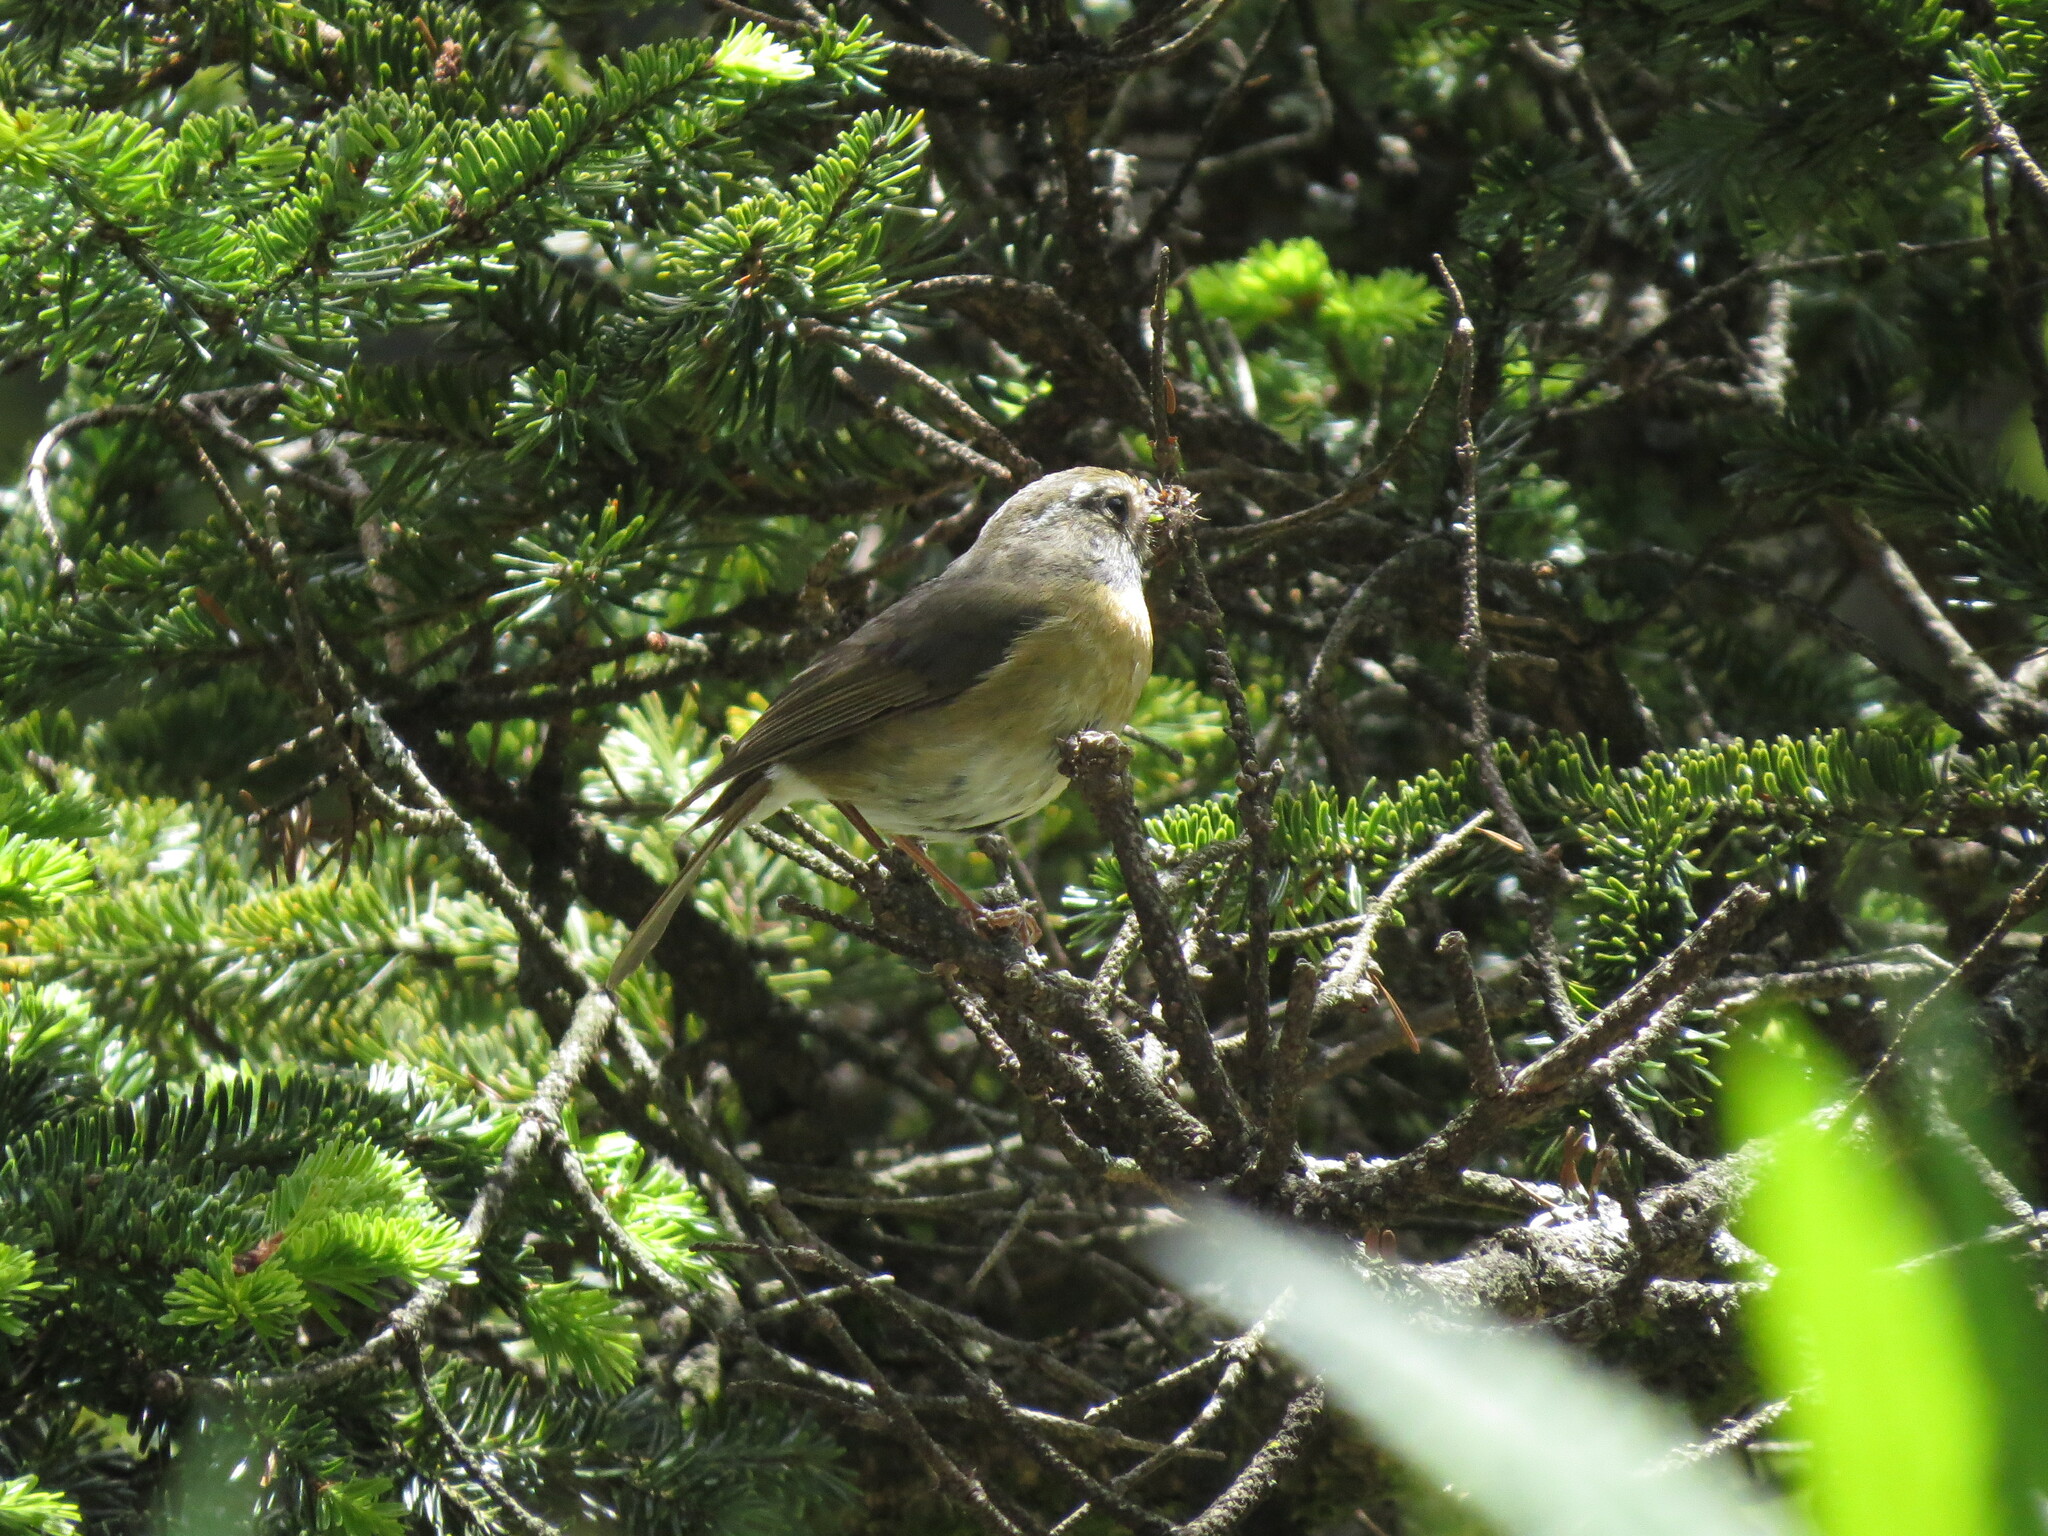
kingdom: Animalia
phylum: Chordata
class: Aves
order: Passeriformes
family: Muscicapidae
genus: Tarsiger
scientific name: Tarsiger johnstoniae
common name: Collared bush robin
